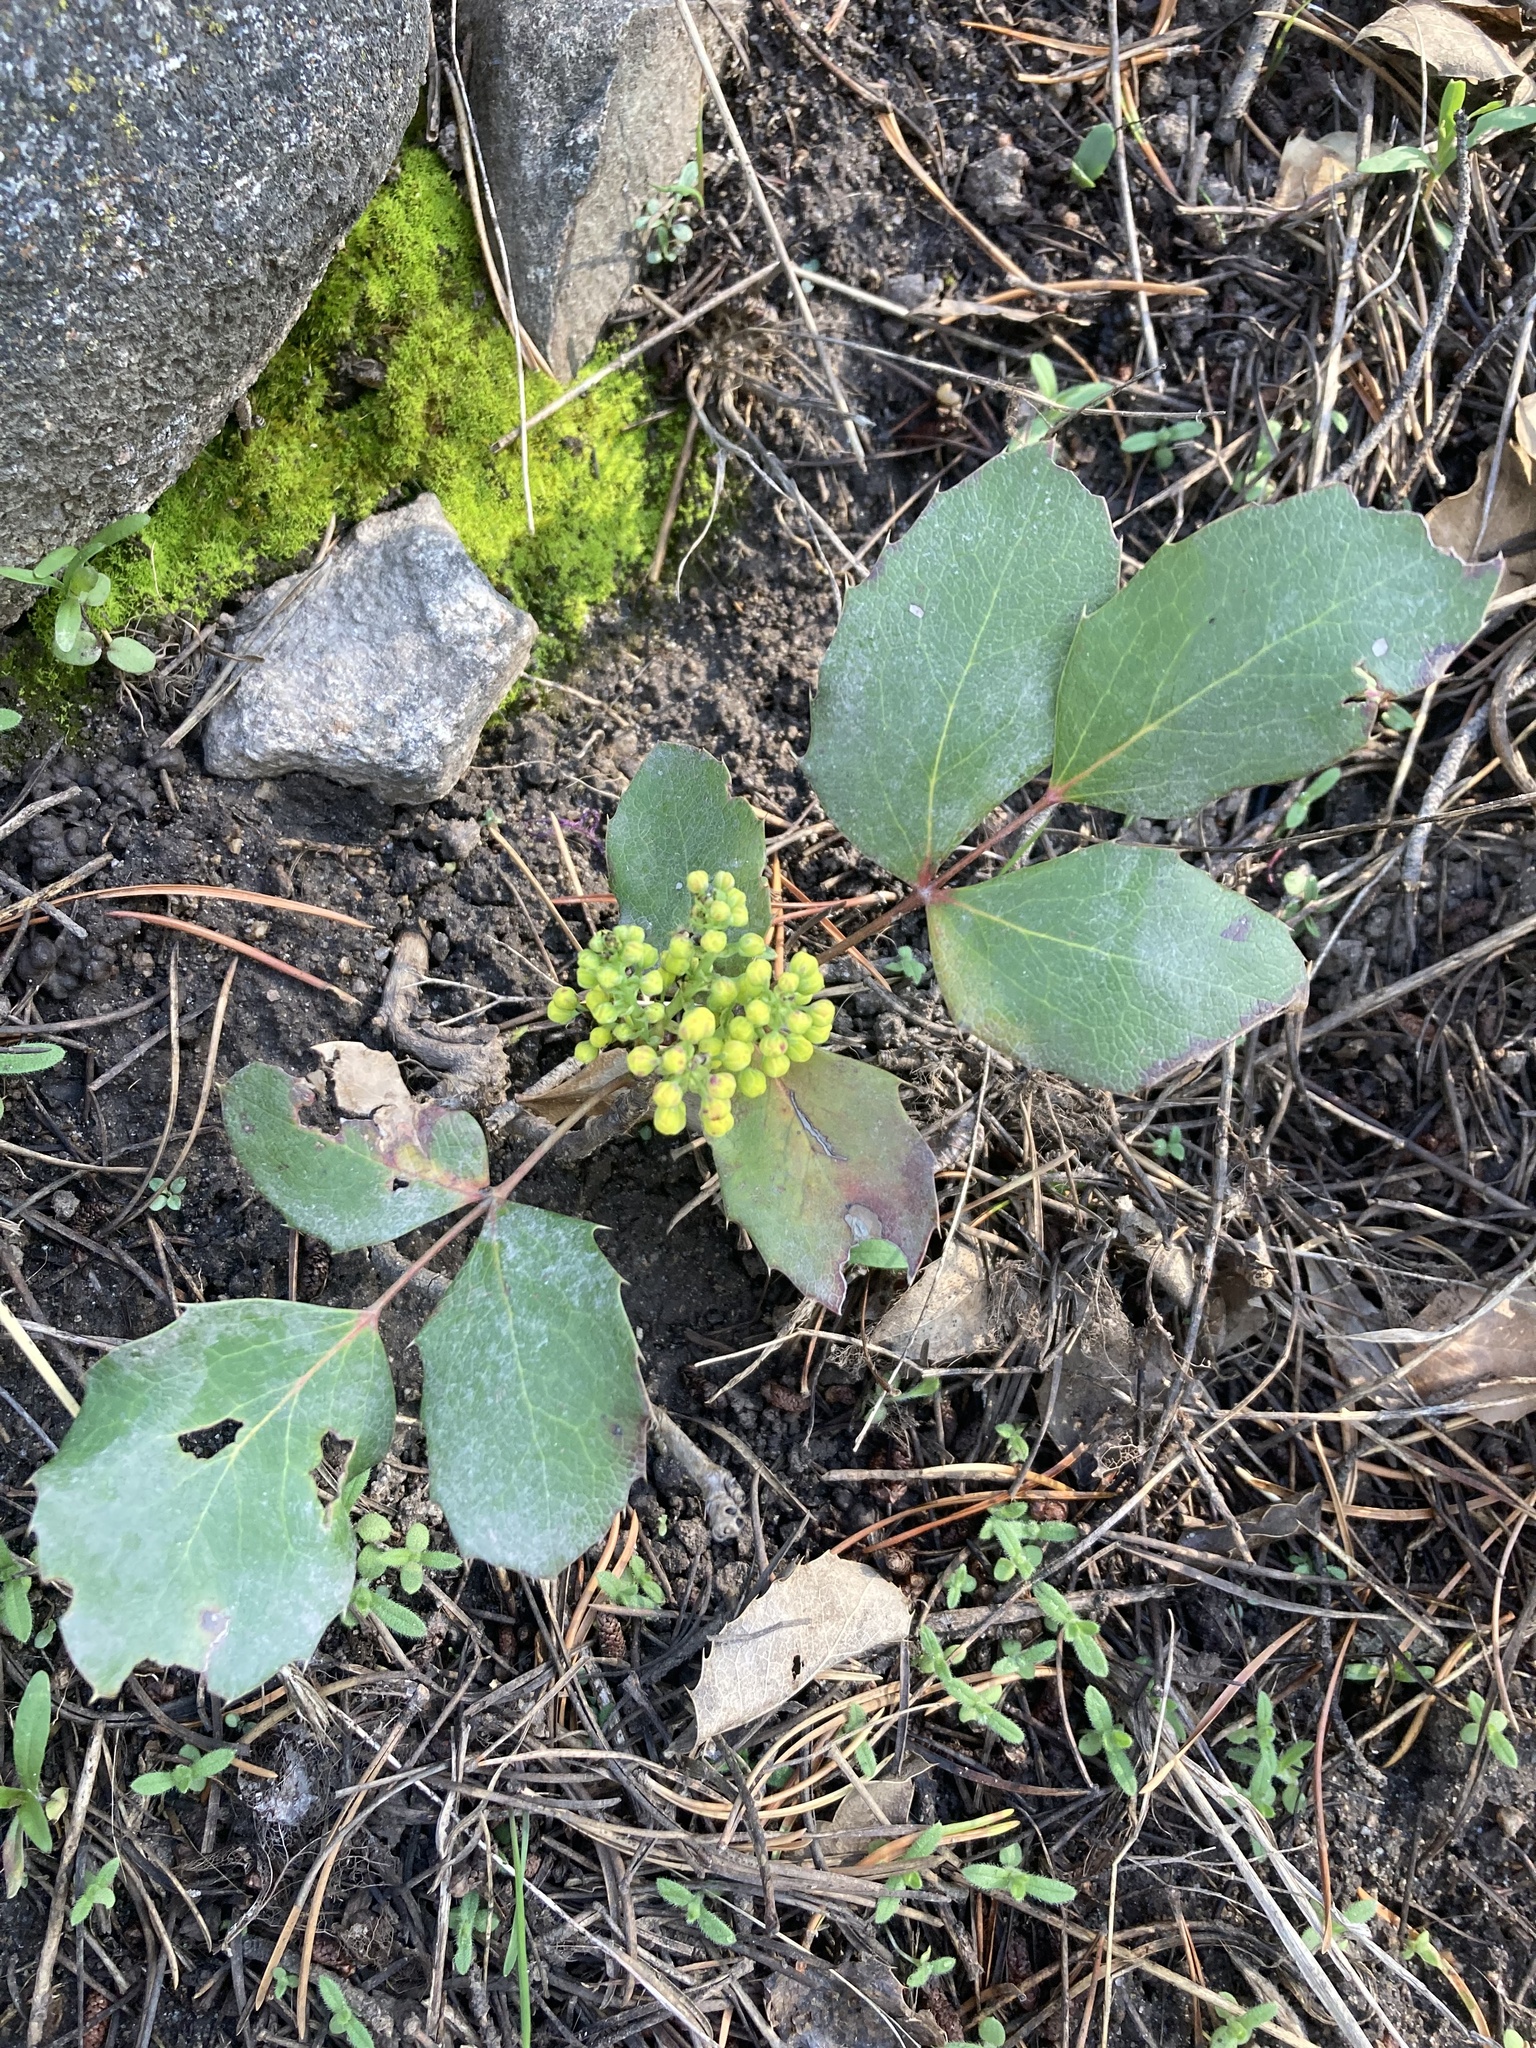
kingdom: Plantae
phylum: Tracheophyta
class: Magnoliopsida
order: Ranunculales
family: Berberidaceae
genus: Mahonia
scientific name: Mahonia repens
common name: Creeping oregon-grape
